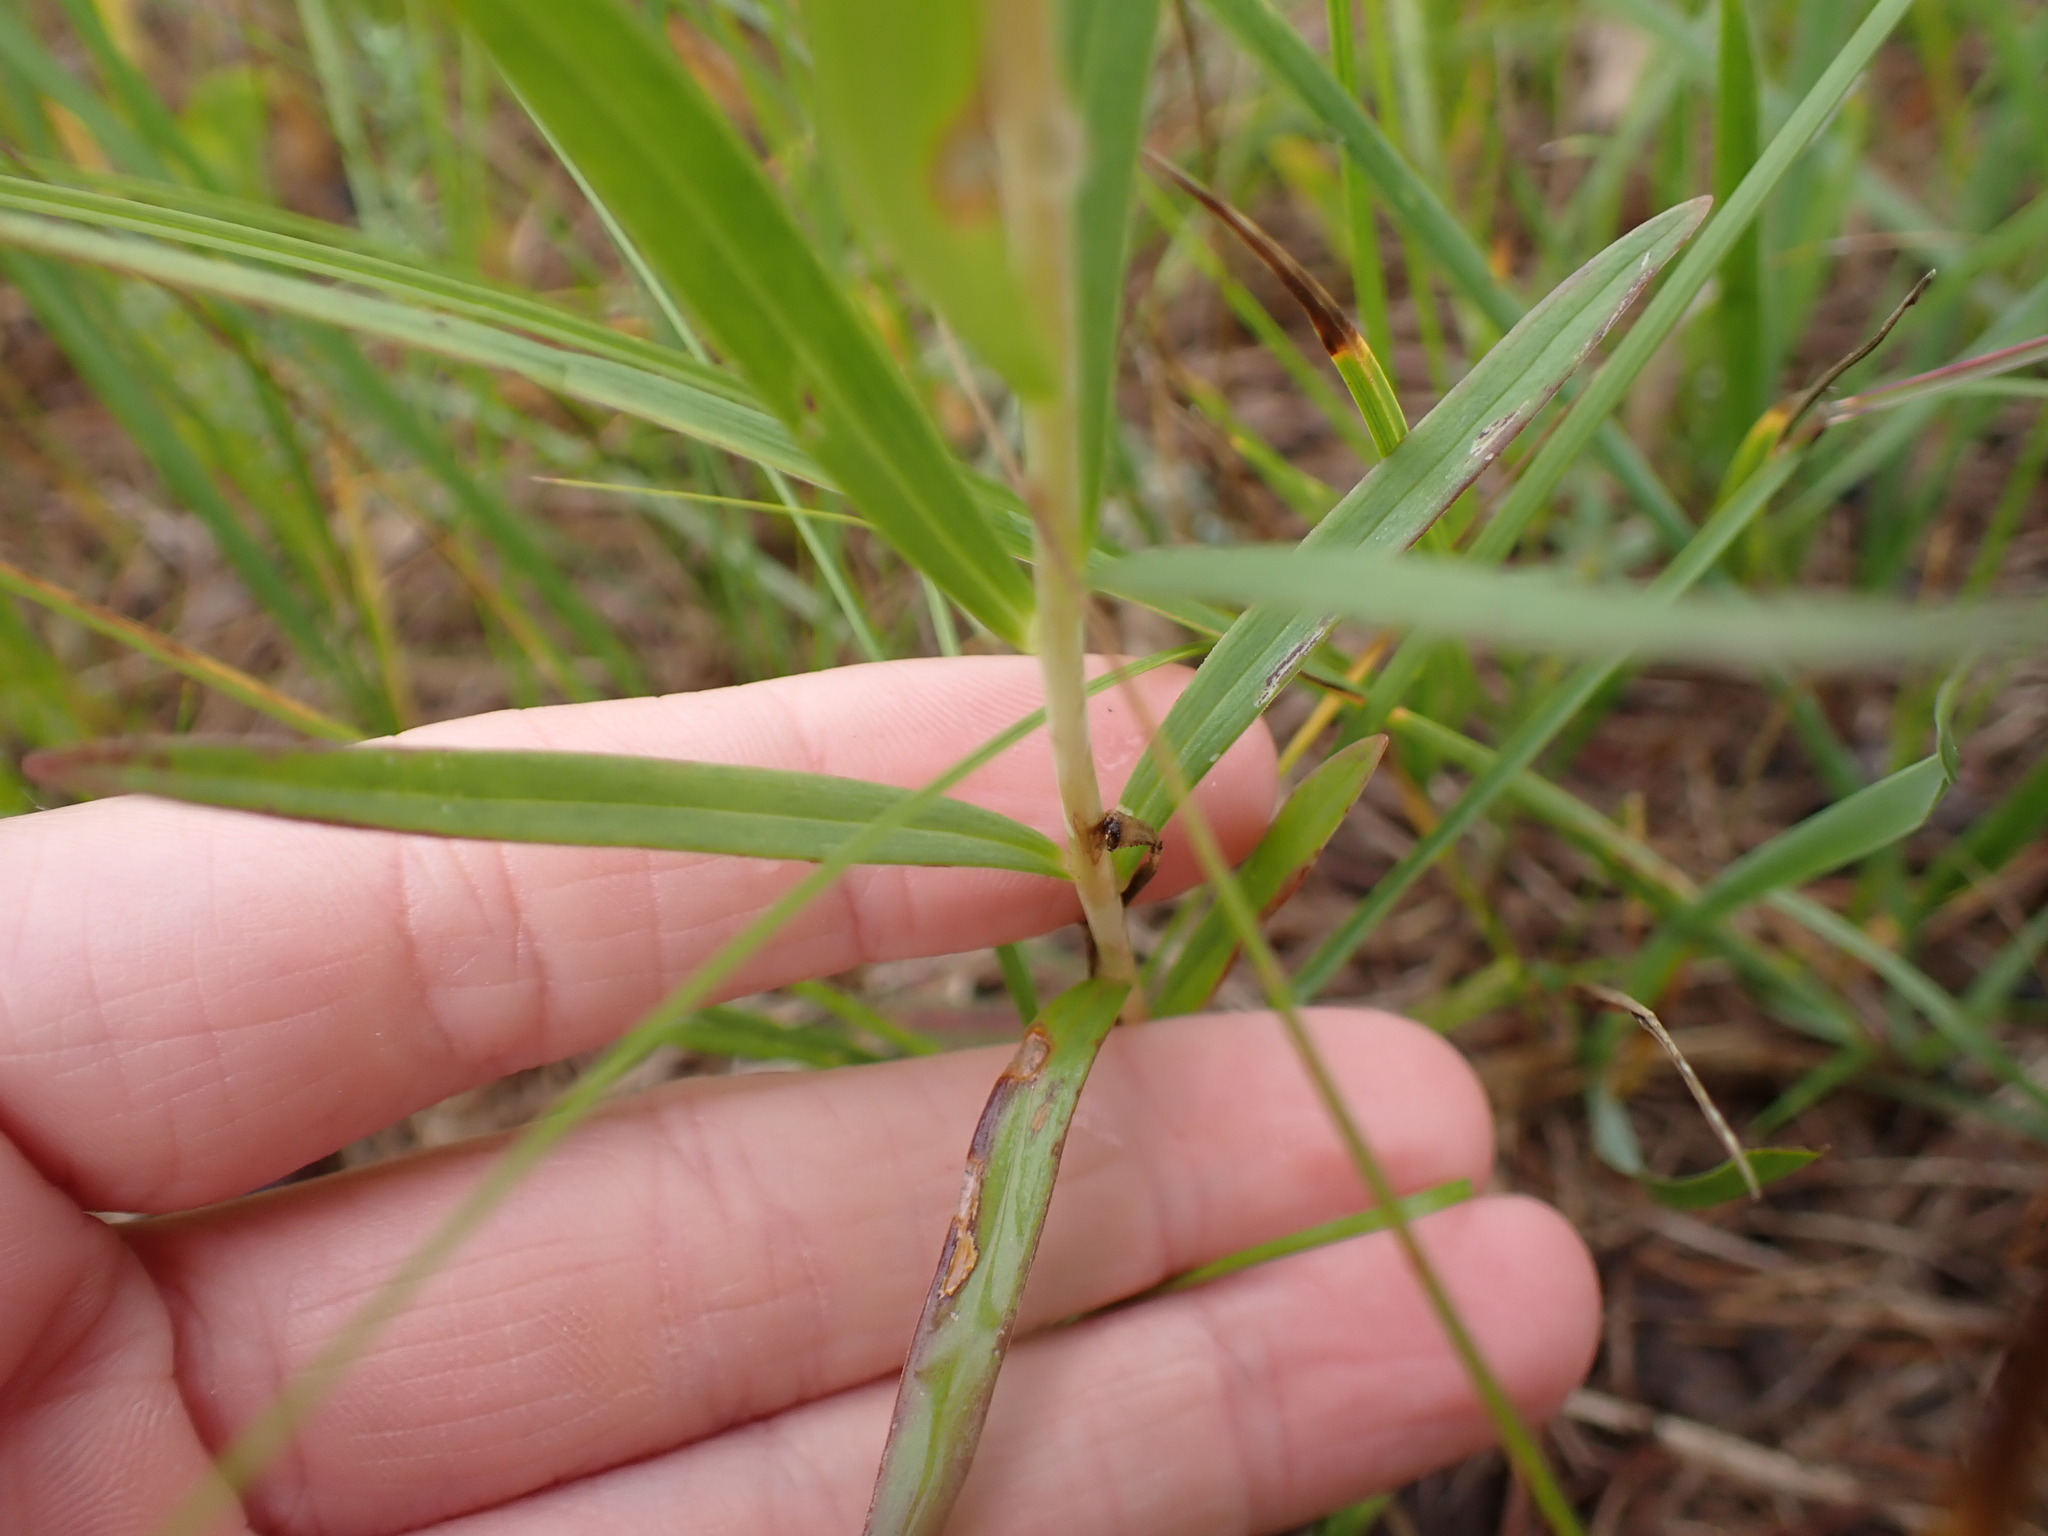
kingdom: Plantae
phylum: Tracheophyta
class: Liliopsida
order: Liliales
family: Liliaceae
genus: Lilium
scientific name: Lilium philadelphicum
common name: Red lily
